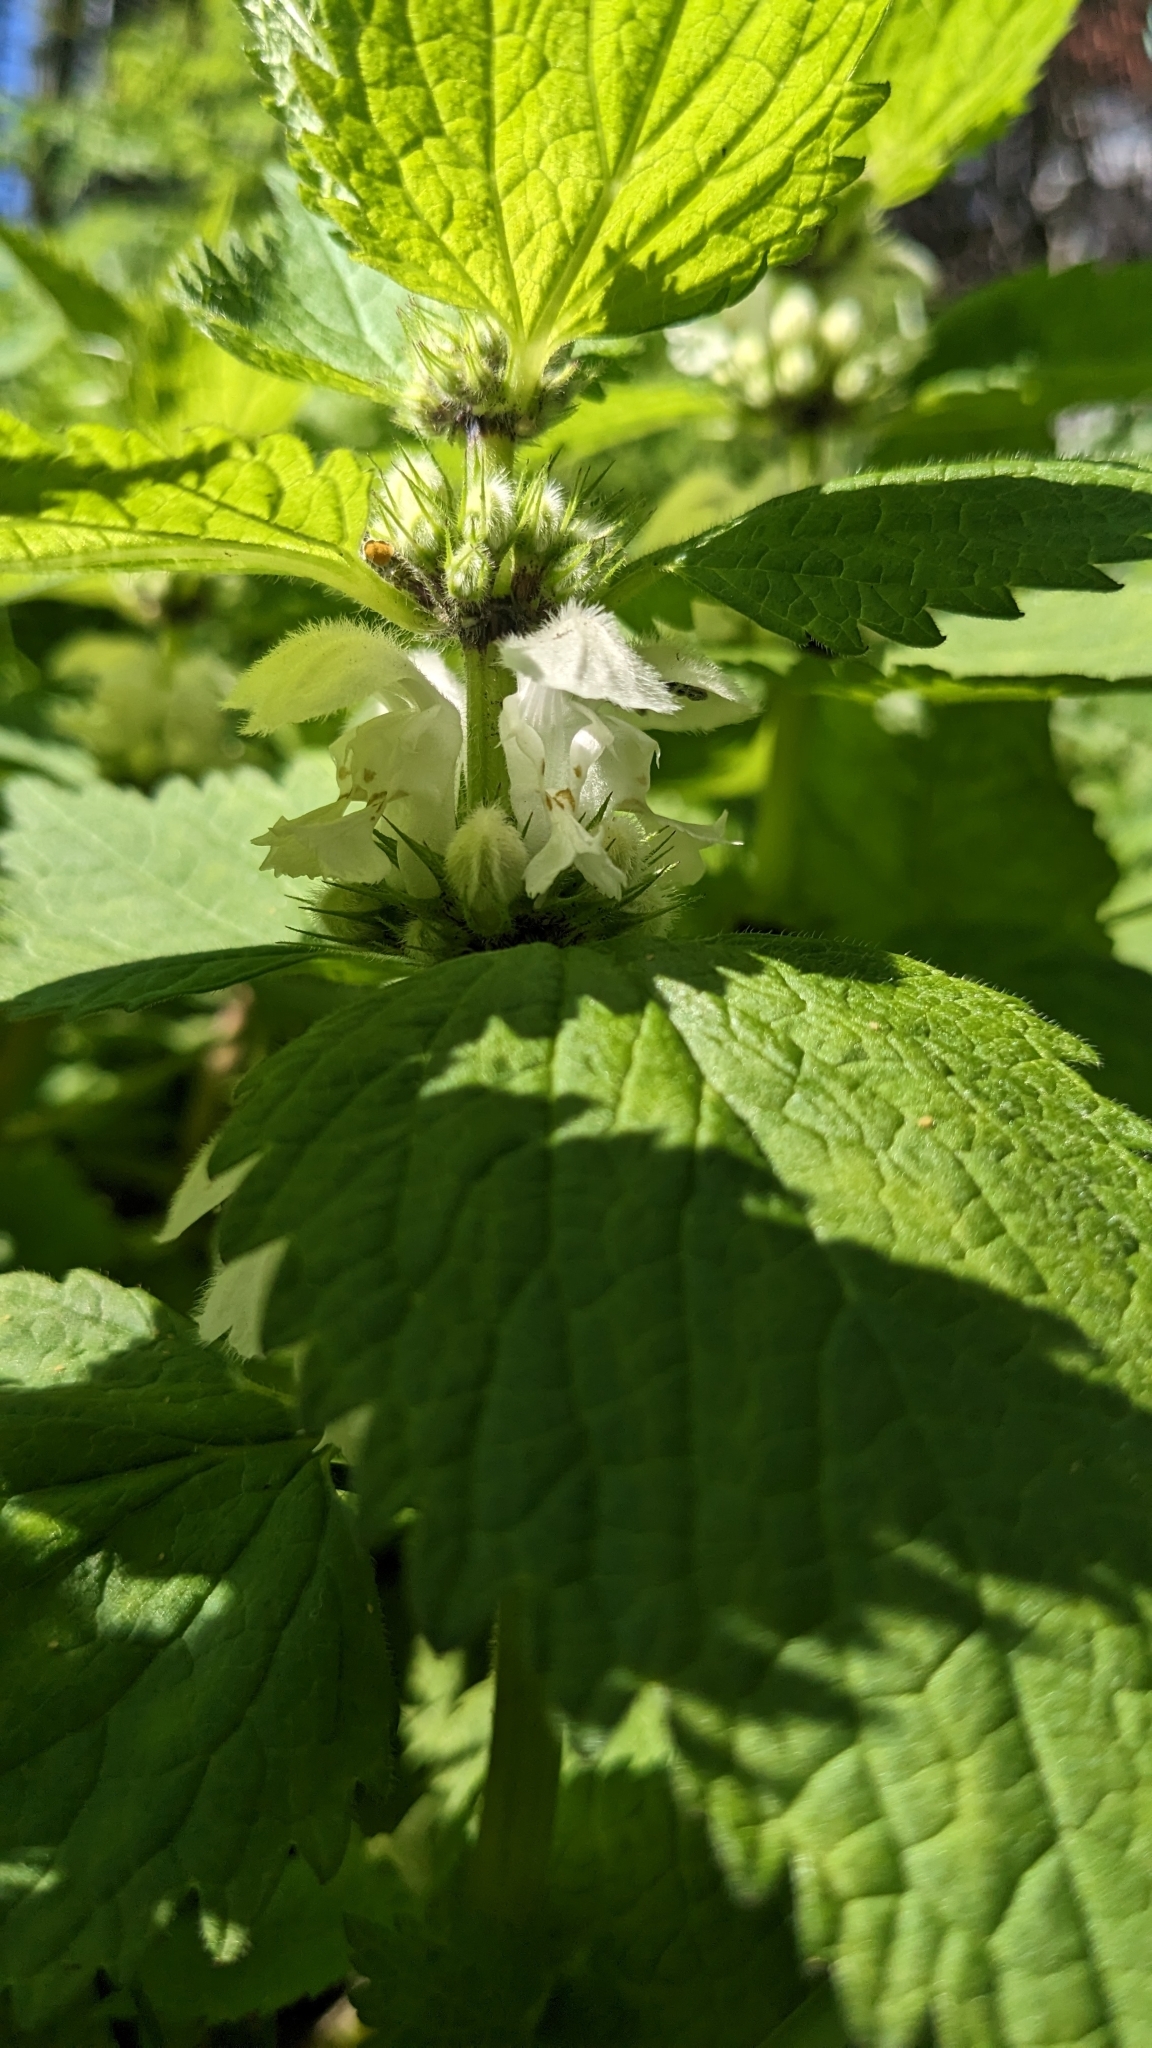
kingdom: Plantae
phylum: Tracheophyta
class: Magnoliopsida
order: Lamiales
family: Lamiaceae
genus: Lamium
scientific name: Lamium album
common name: White dead-nettle
